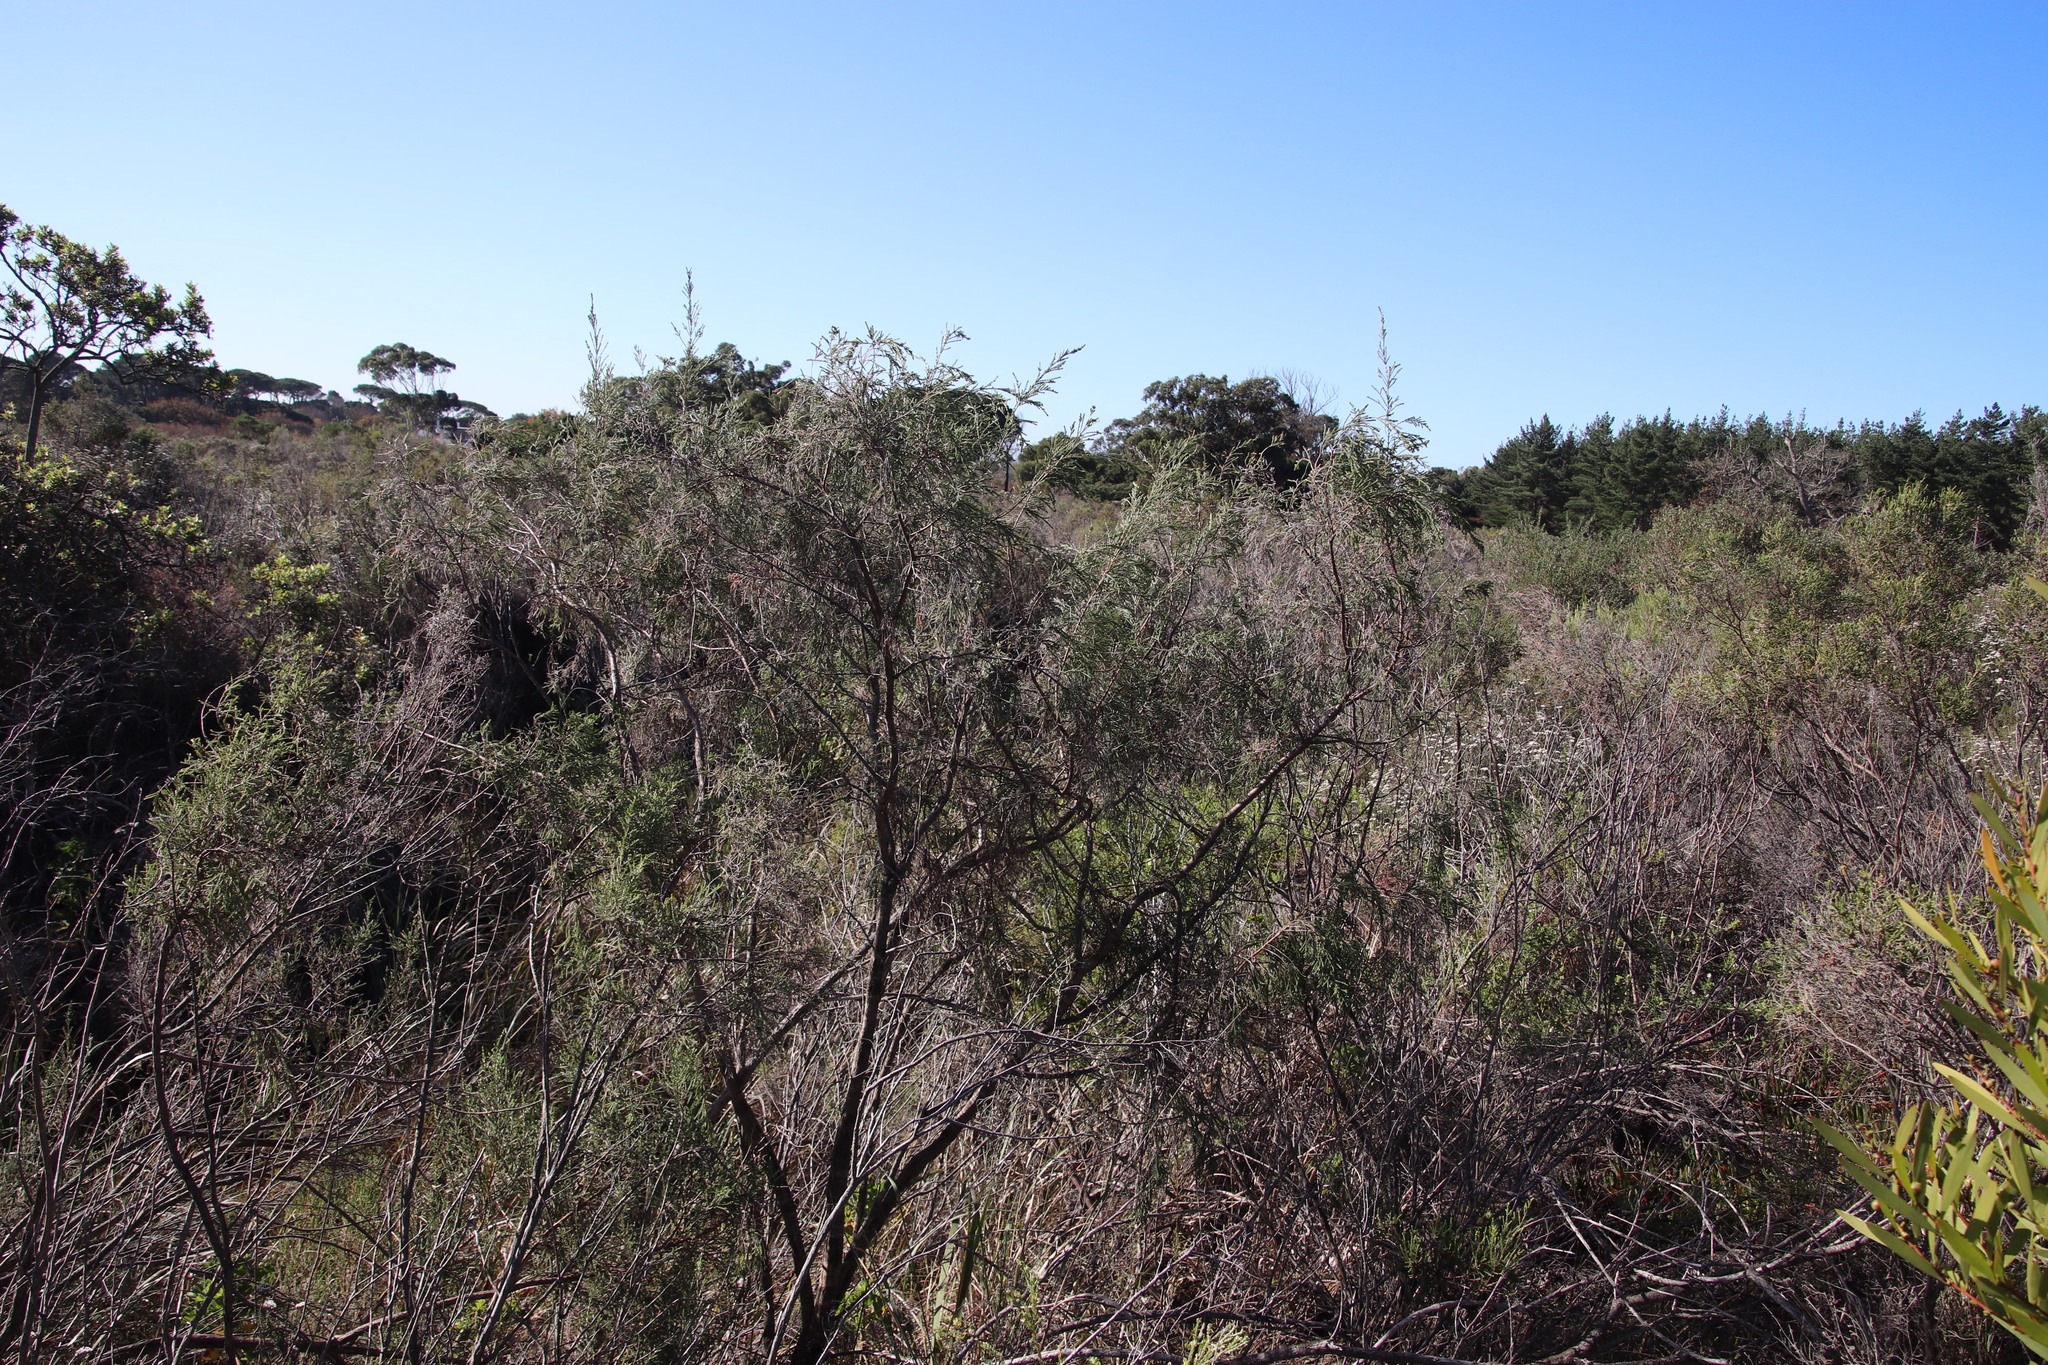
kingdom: Plantae
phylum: Tracheophyta
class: Magnoliopsida
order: Malvales
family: Thymelaeaceae
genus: Passerina
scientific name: Passerina corymbosa
